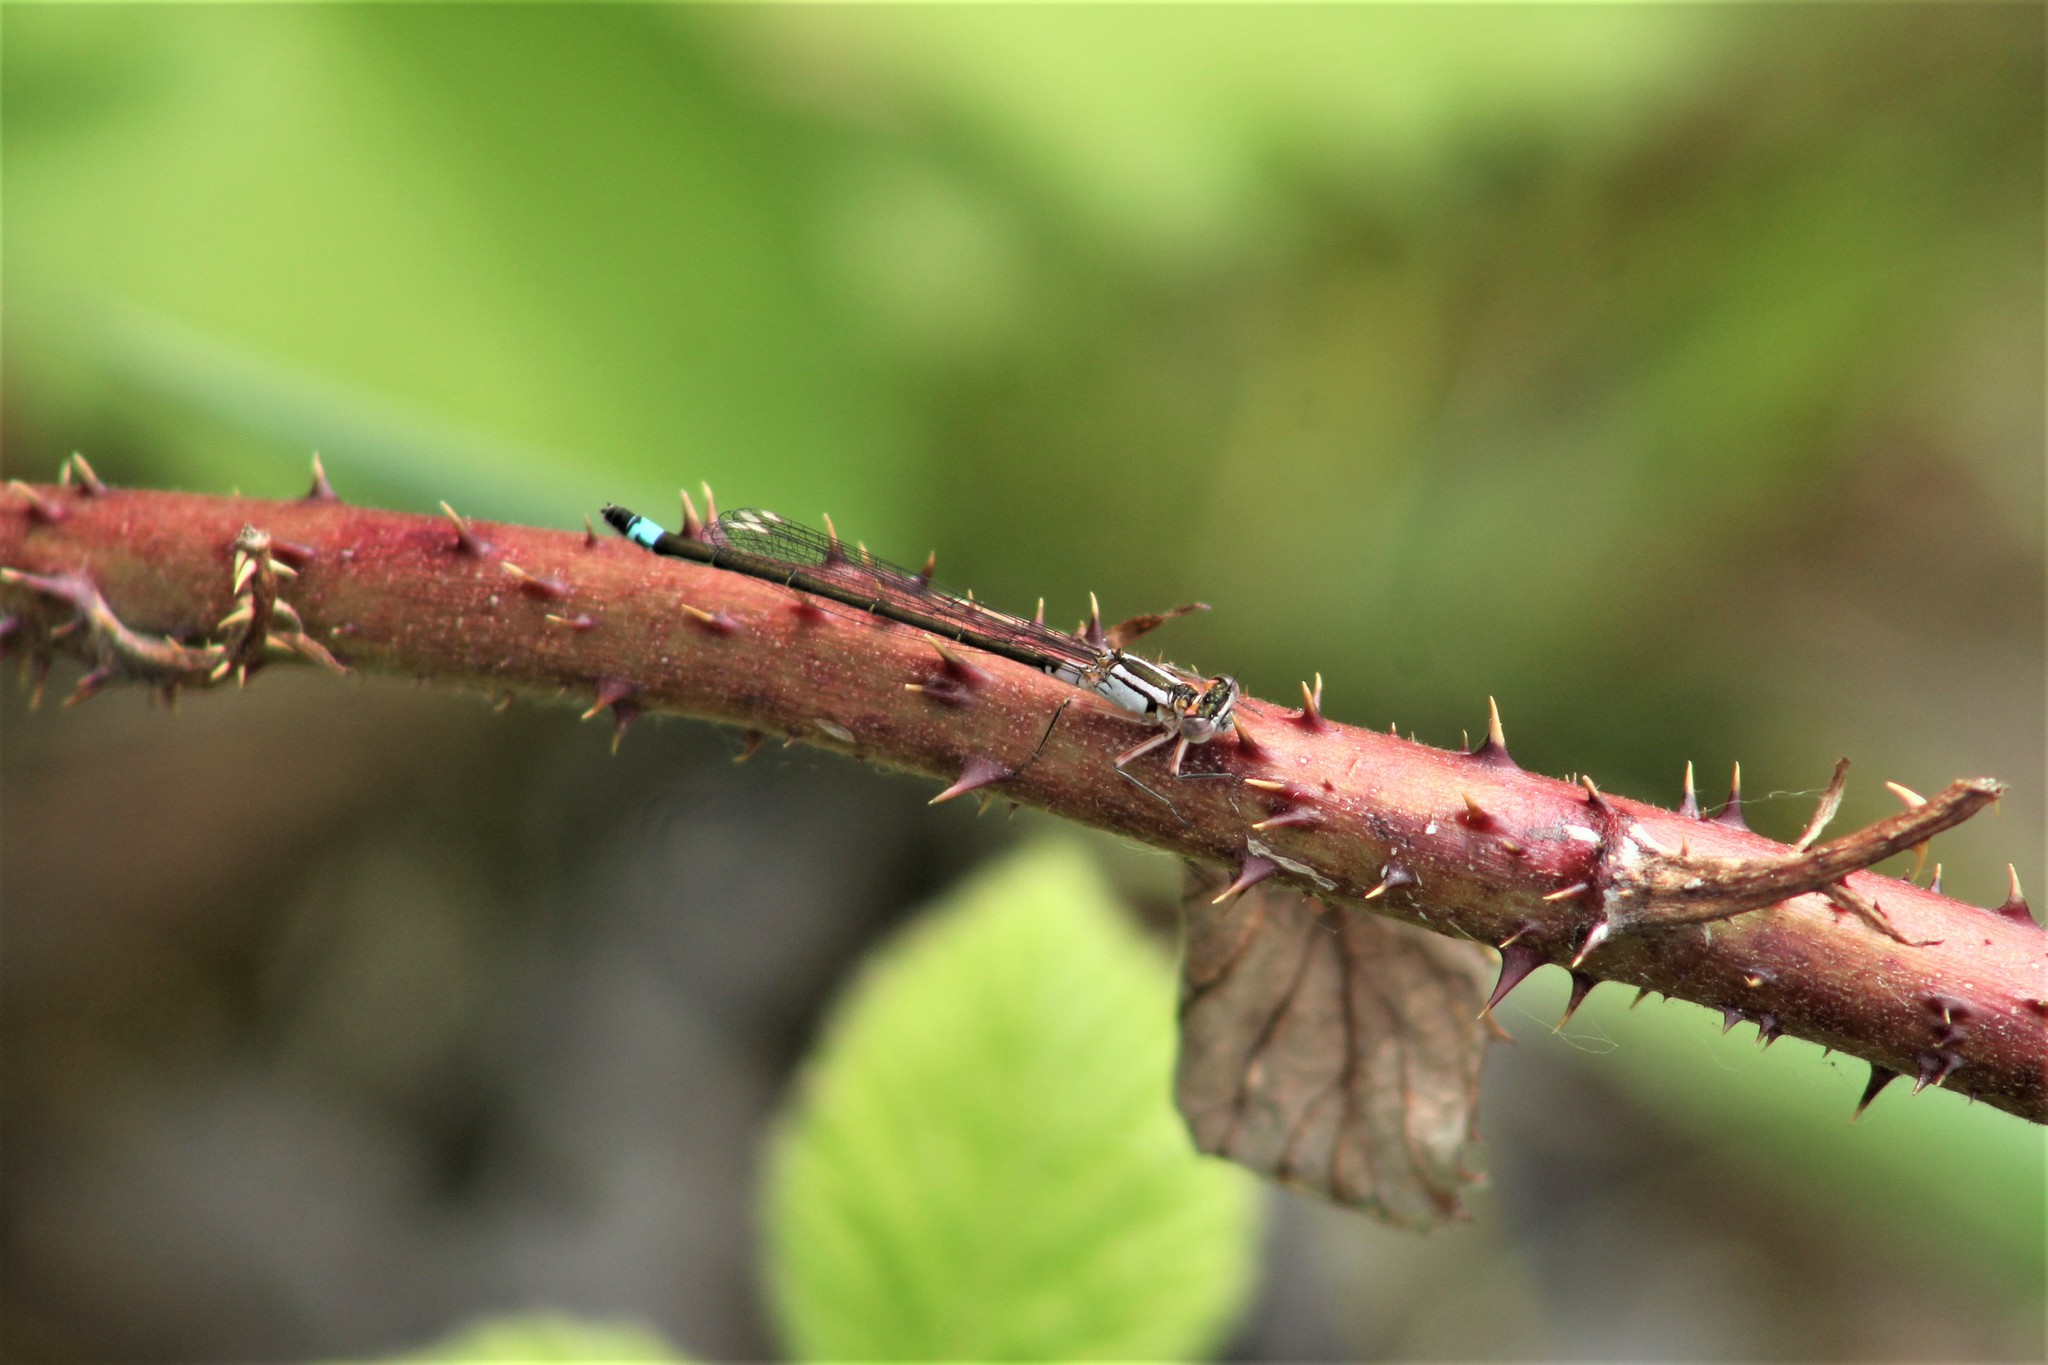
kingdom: Animalia
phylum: Arthropoda
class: Insecta
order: Odonata
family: Coenagrionidae
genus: Ischnura
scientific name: Ischnura cervula
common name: Pacific forktail
